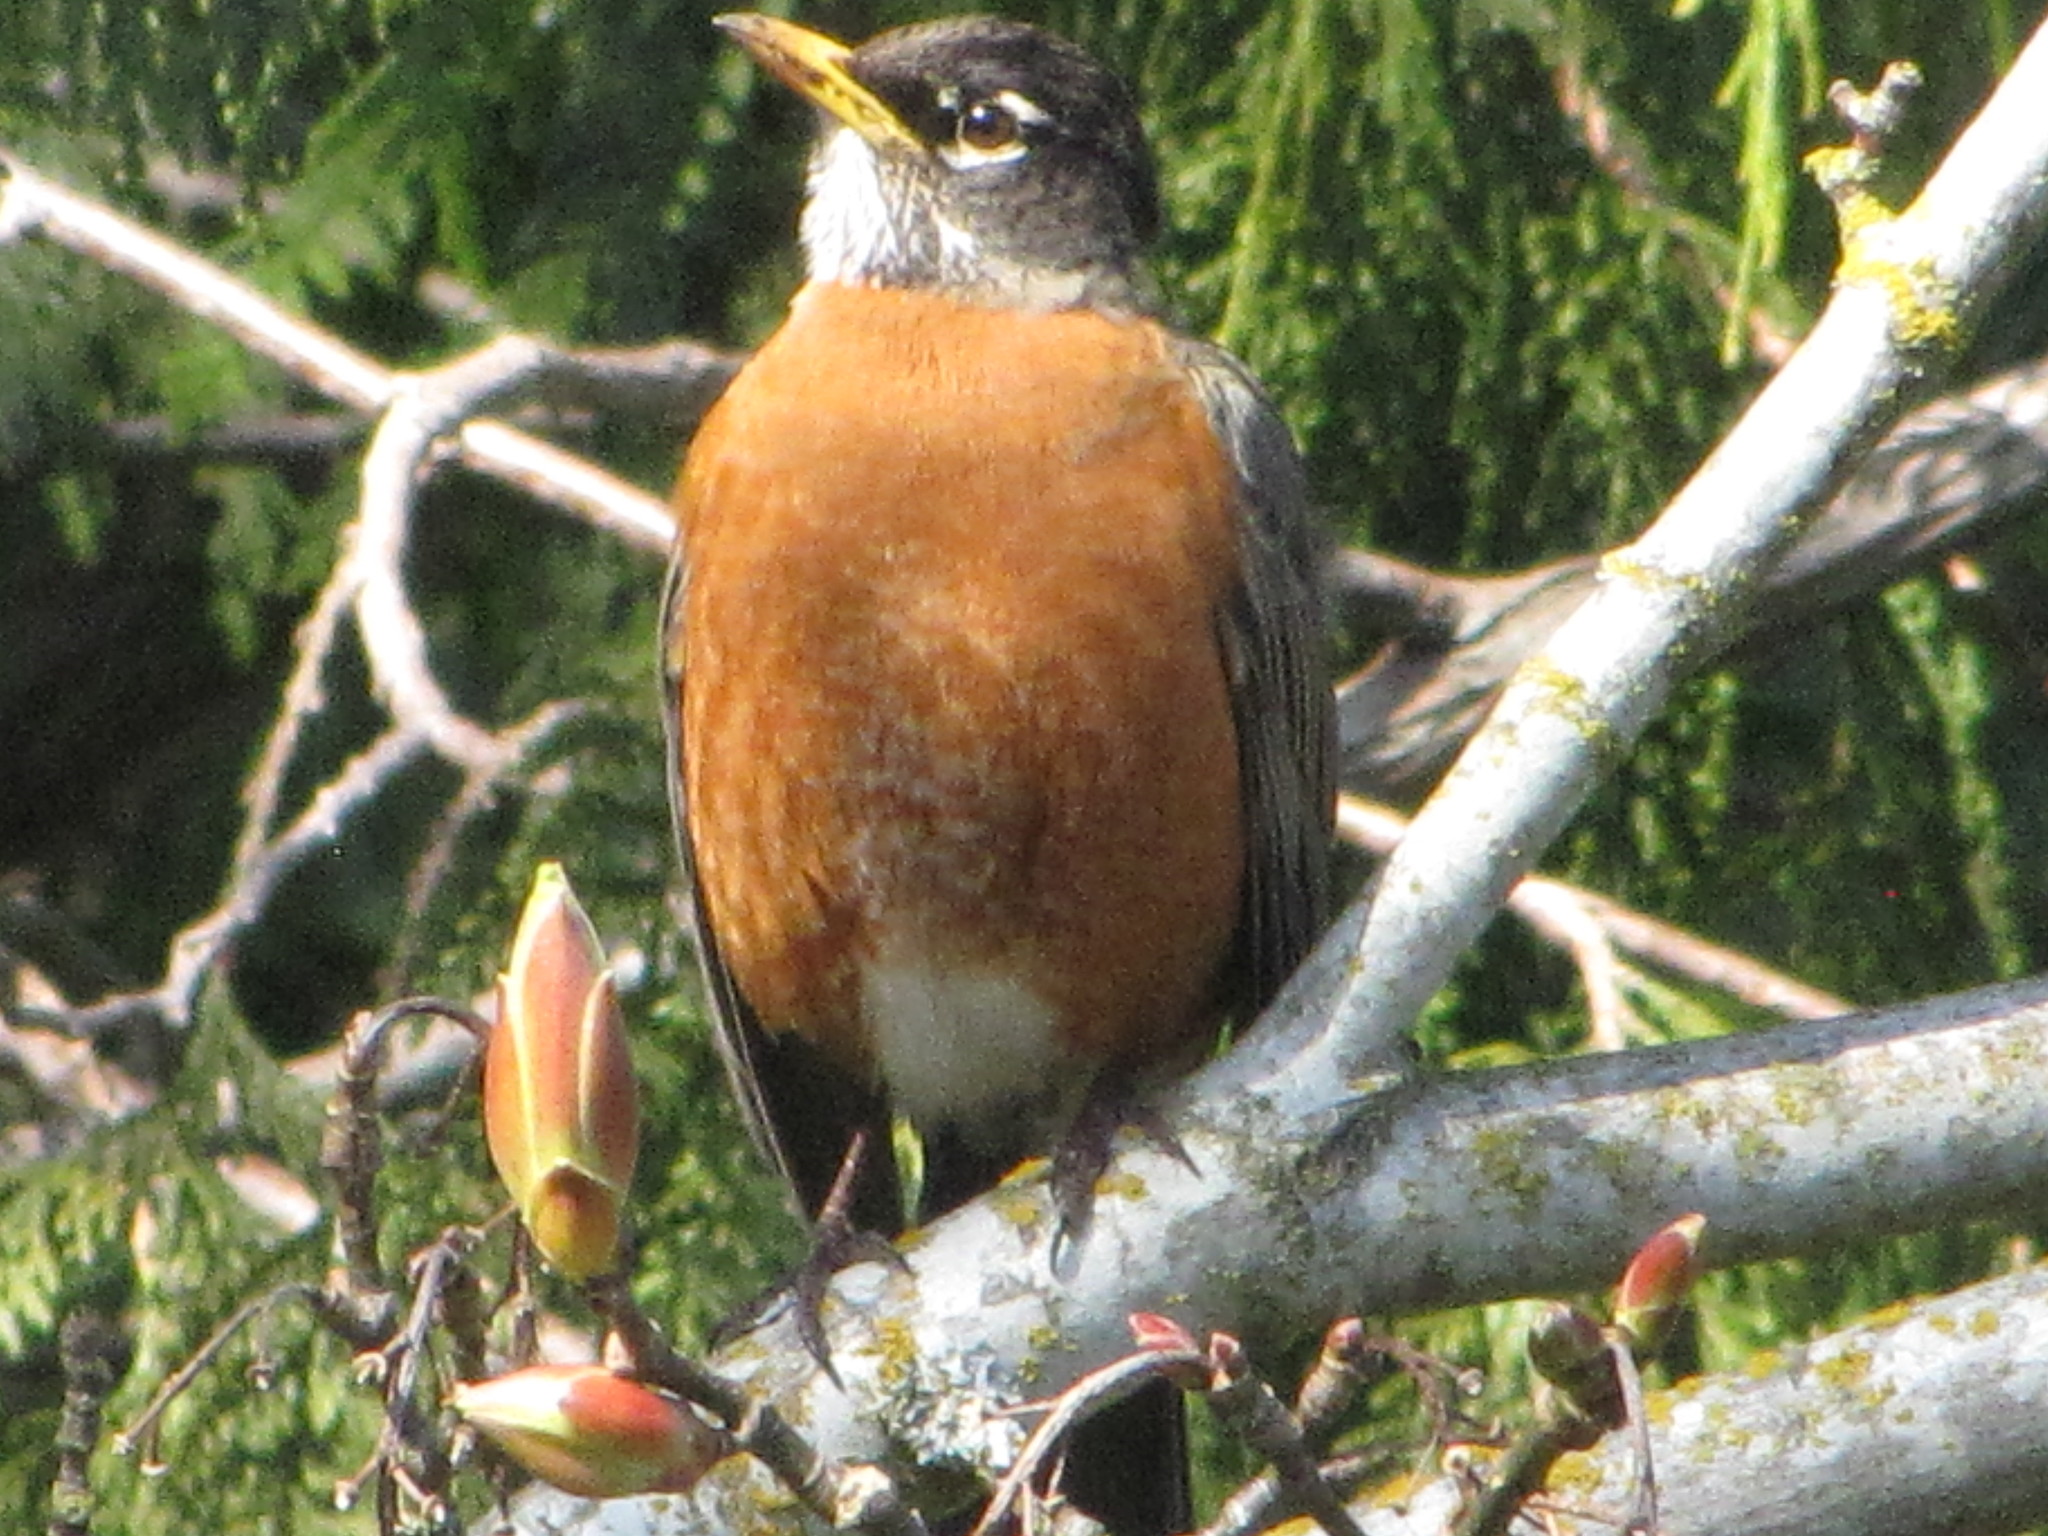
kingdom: Animalia
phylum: Chordata
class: Aves
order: Passeriformes
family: Turdidae
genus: Turdus
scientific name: Turdus migratorius
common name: American robin
